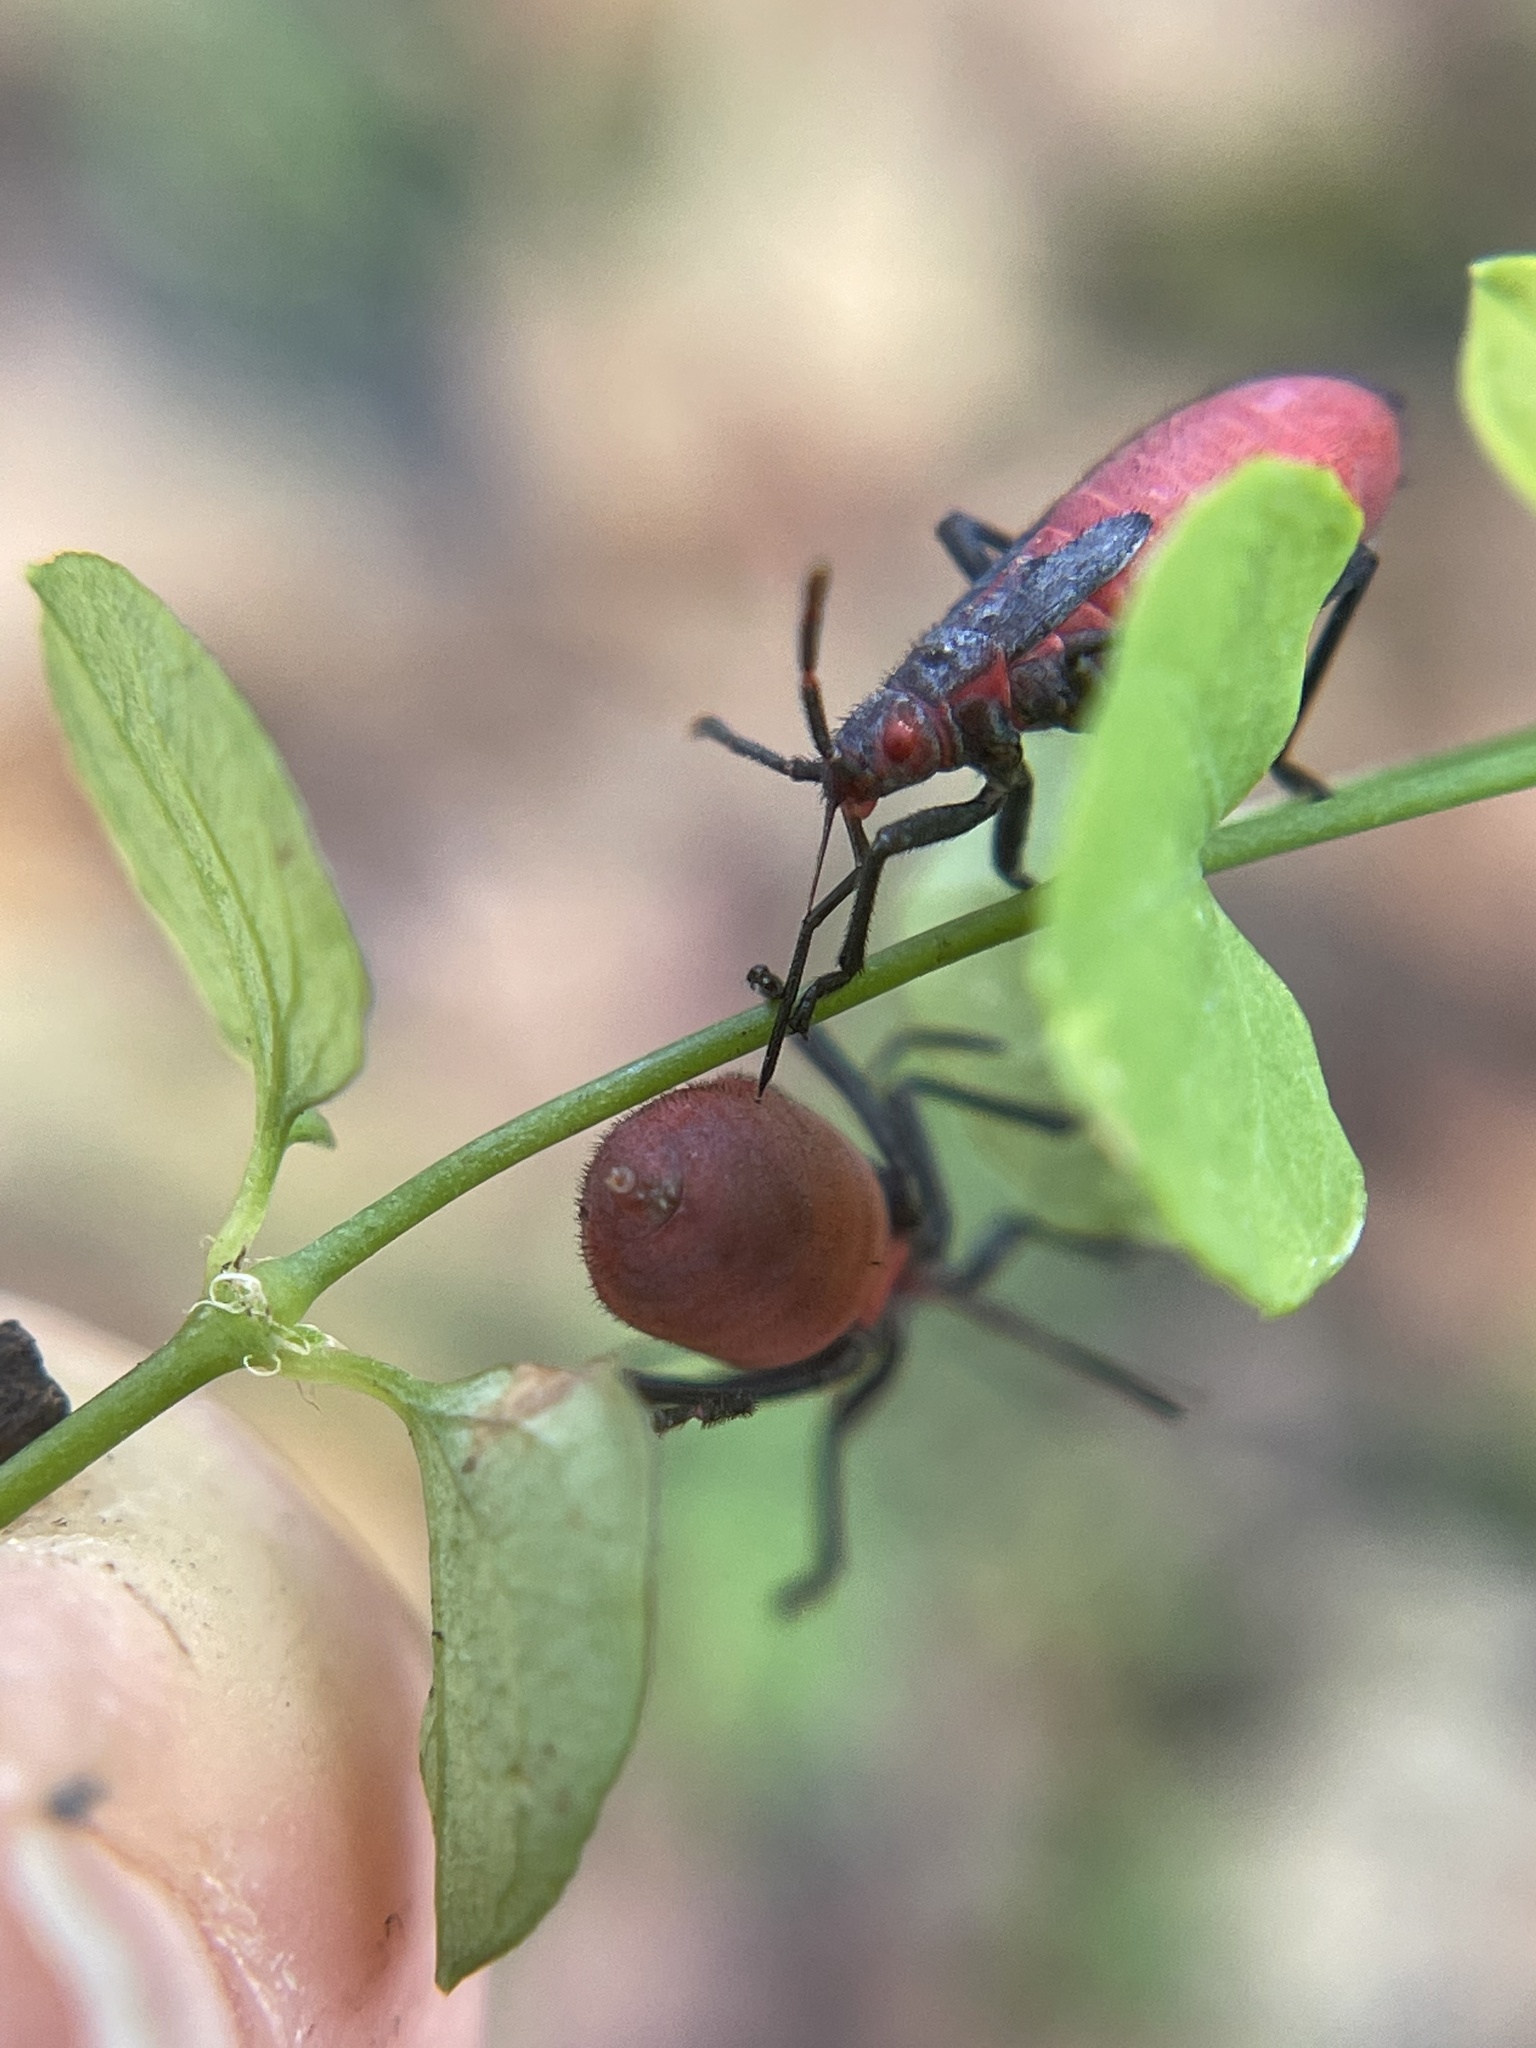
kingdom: Animalia
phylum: Arthropoda
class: Insecta
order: Hemiptera
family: Rhopalidae
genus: Jadera
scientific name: Jadera haematoloma
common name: Red-shouldered bug
